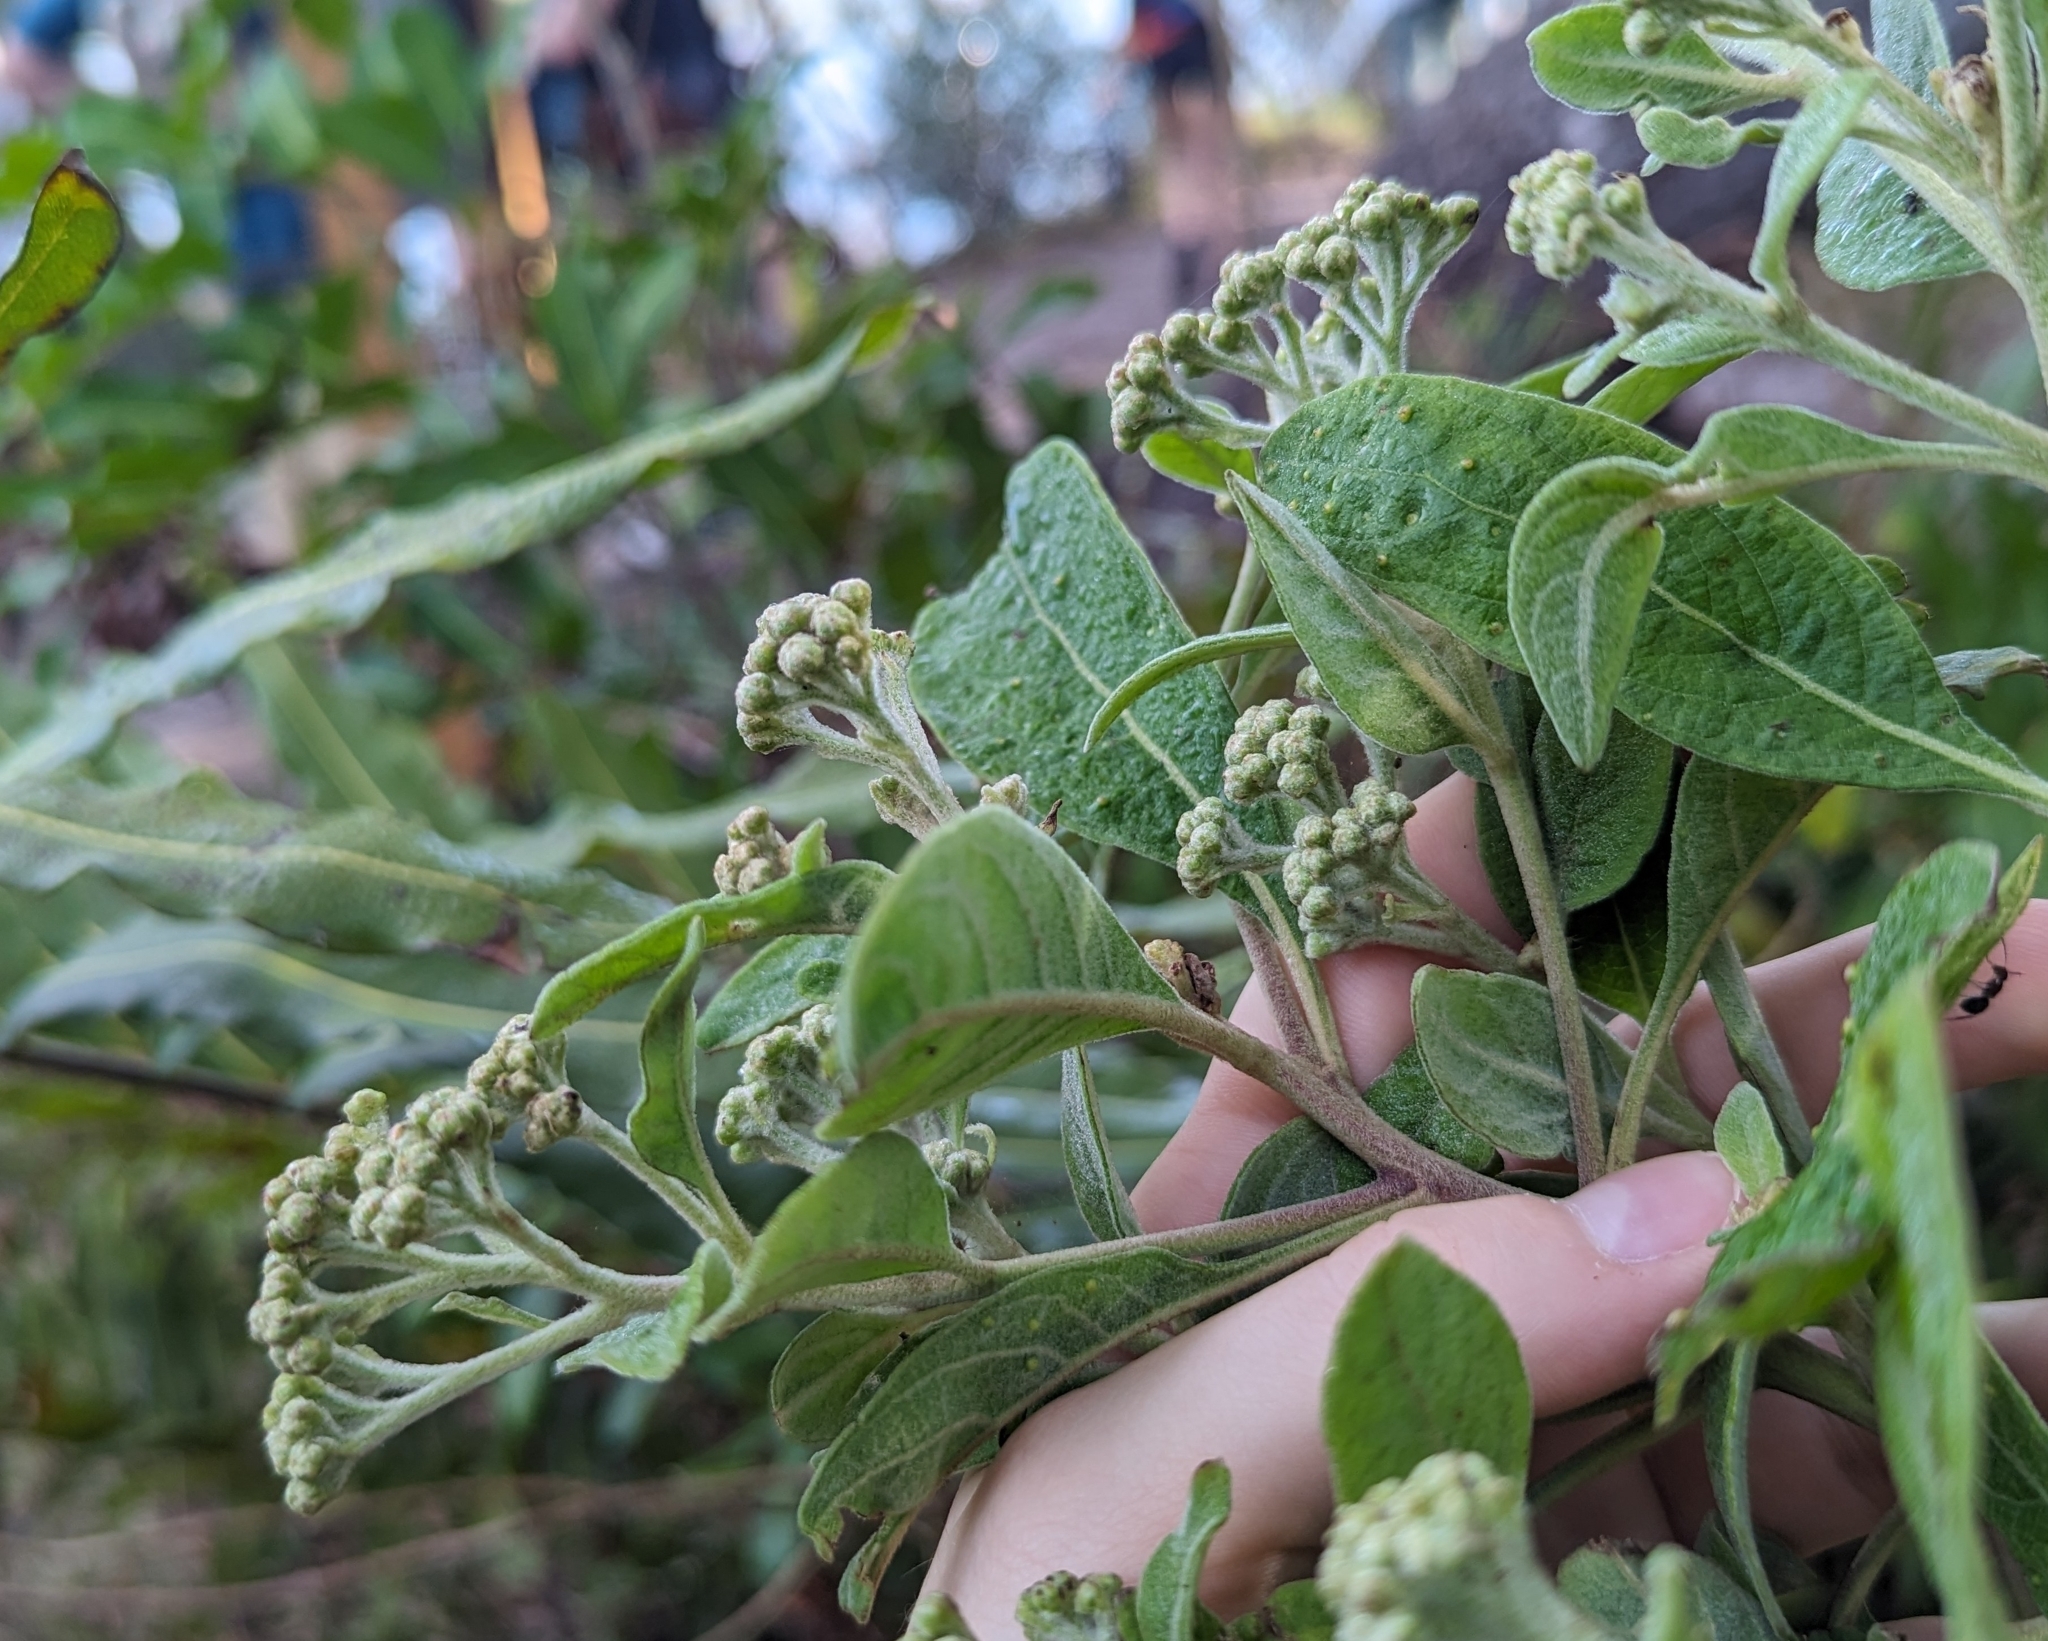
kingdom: Plantae
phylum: Tracheophyta
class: Magnoliopsida
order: Asterales
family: Asteraceae
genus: Pluchea
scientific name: Pluchea carolinensis
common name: Marsh fleabane
